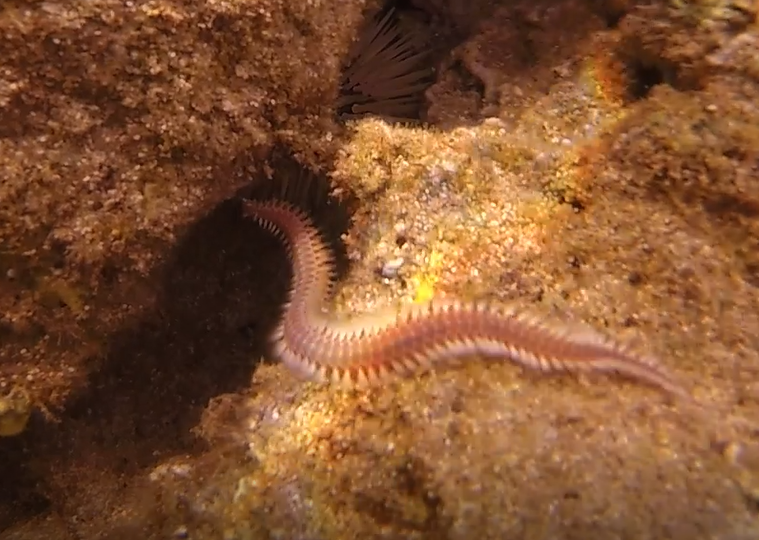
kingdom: Animalia
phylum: Annelida
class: Polychaeta
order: Amphinomida
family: Amphinomidae
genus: Eurythoe
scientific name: Eurythoe complanata
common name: Fireworm
